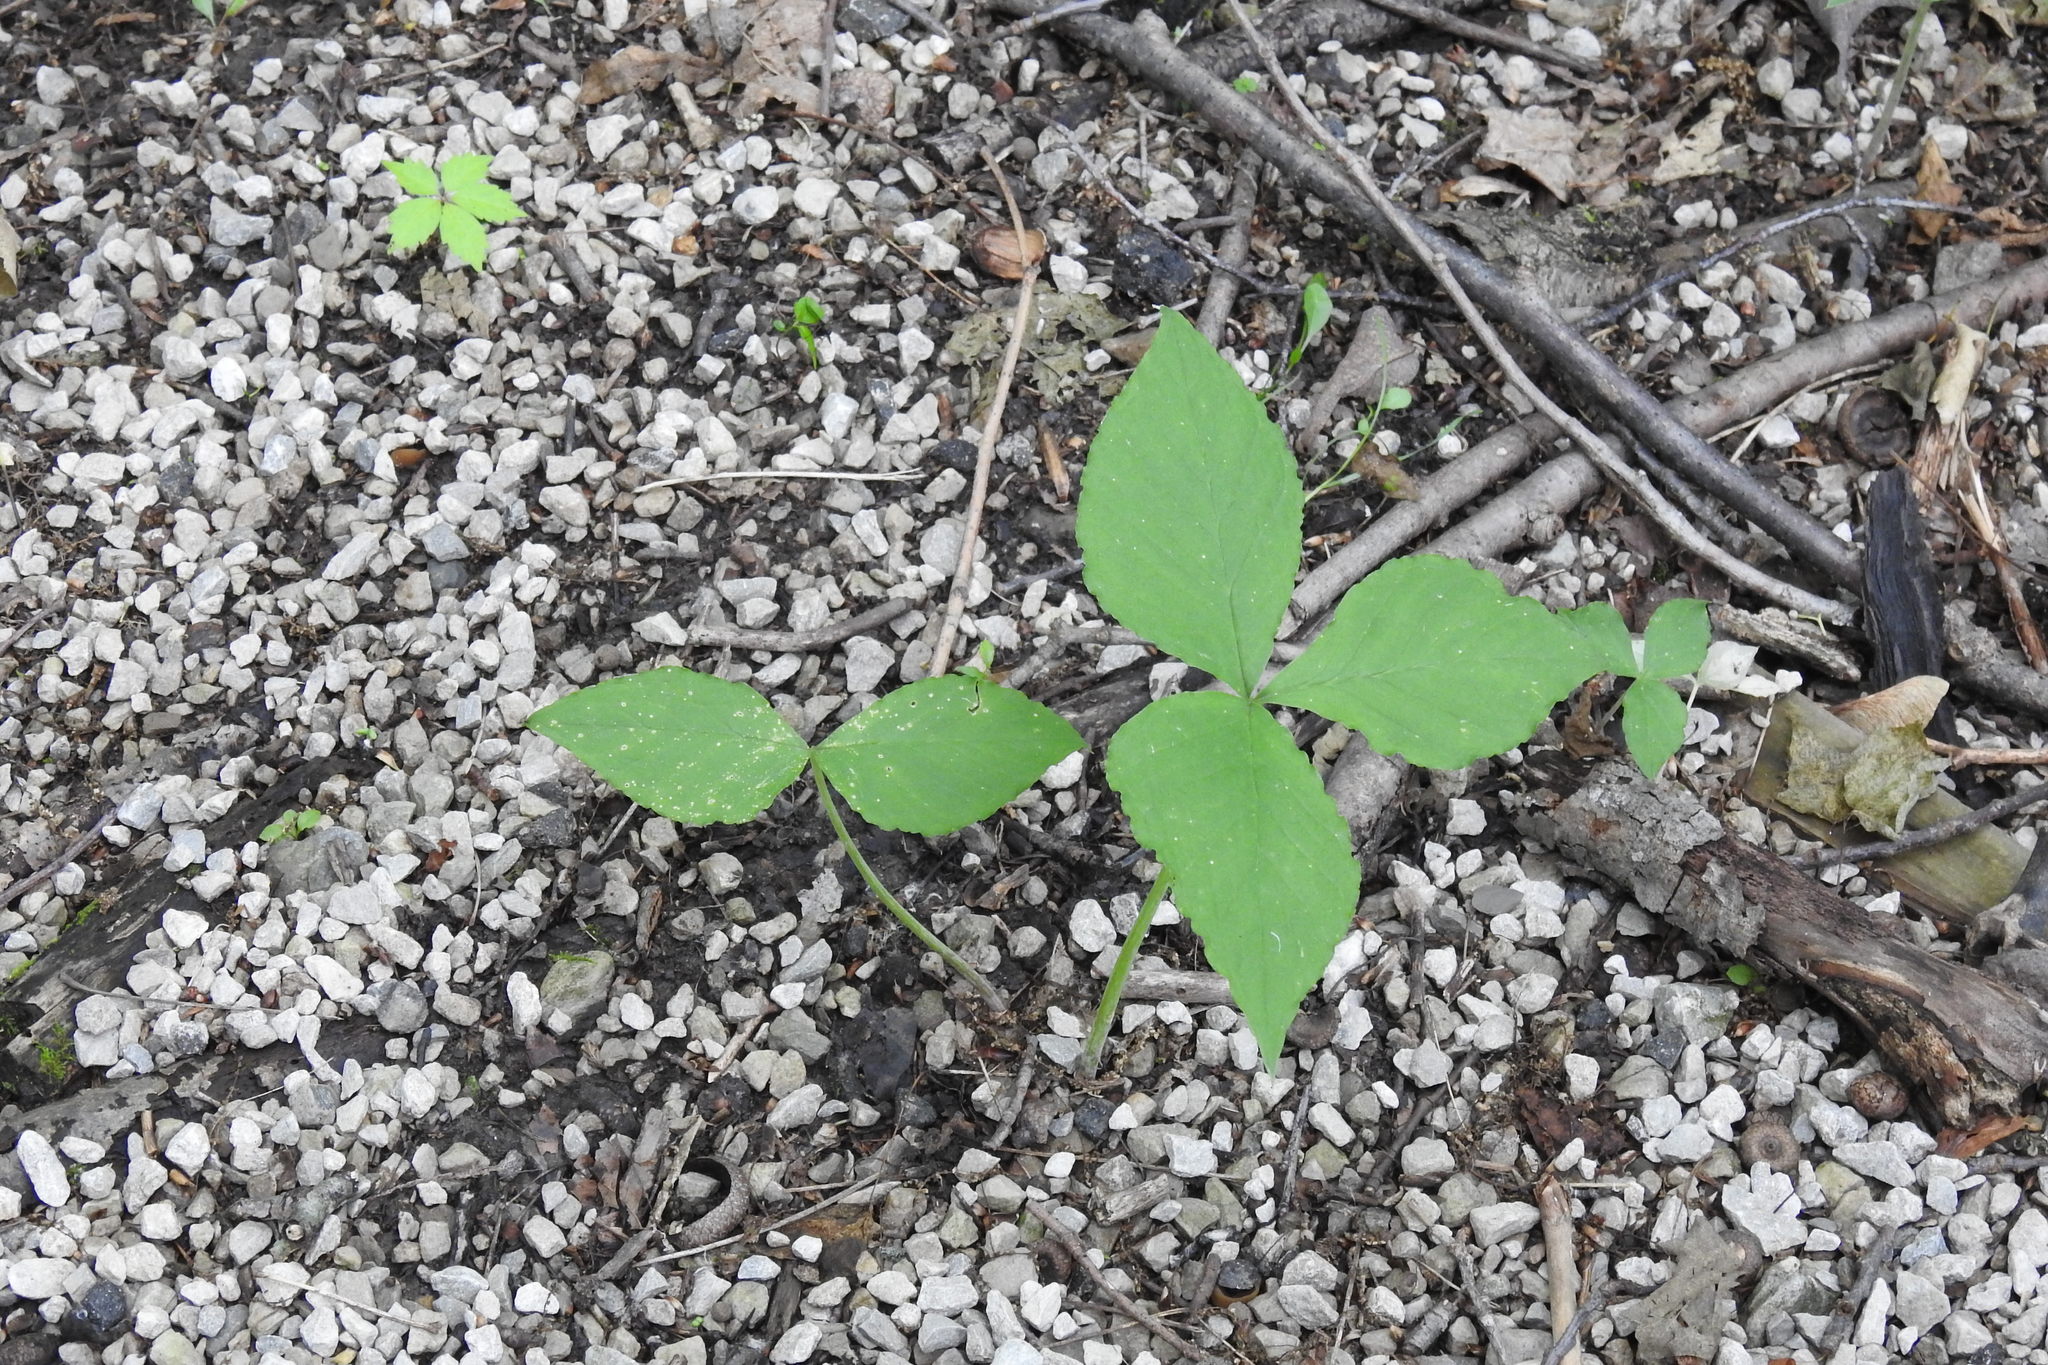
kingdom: Plantae
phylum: Tracheophyta
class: Liliopsida
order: Alismatales
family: Araceae
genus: Arisaema
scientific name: Arisaema triphyllum
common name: Jack-in-the-pulpit
